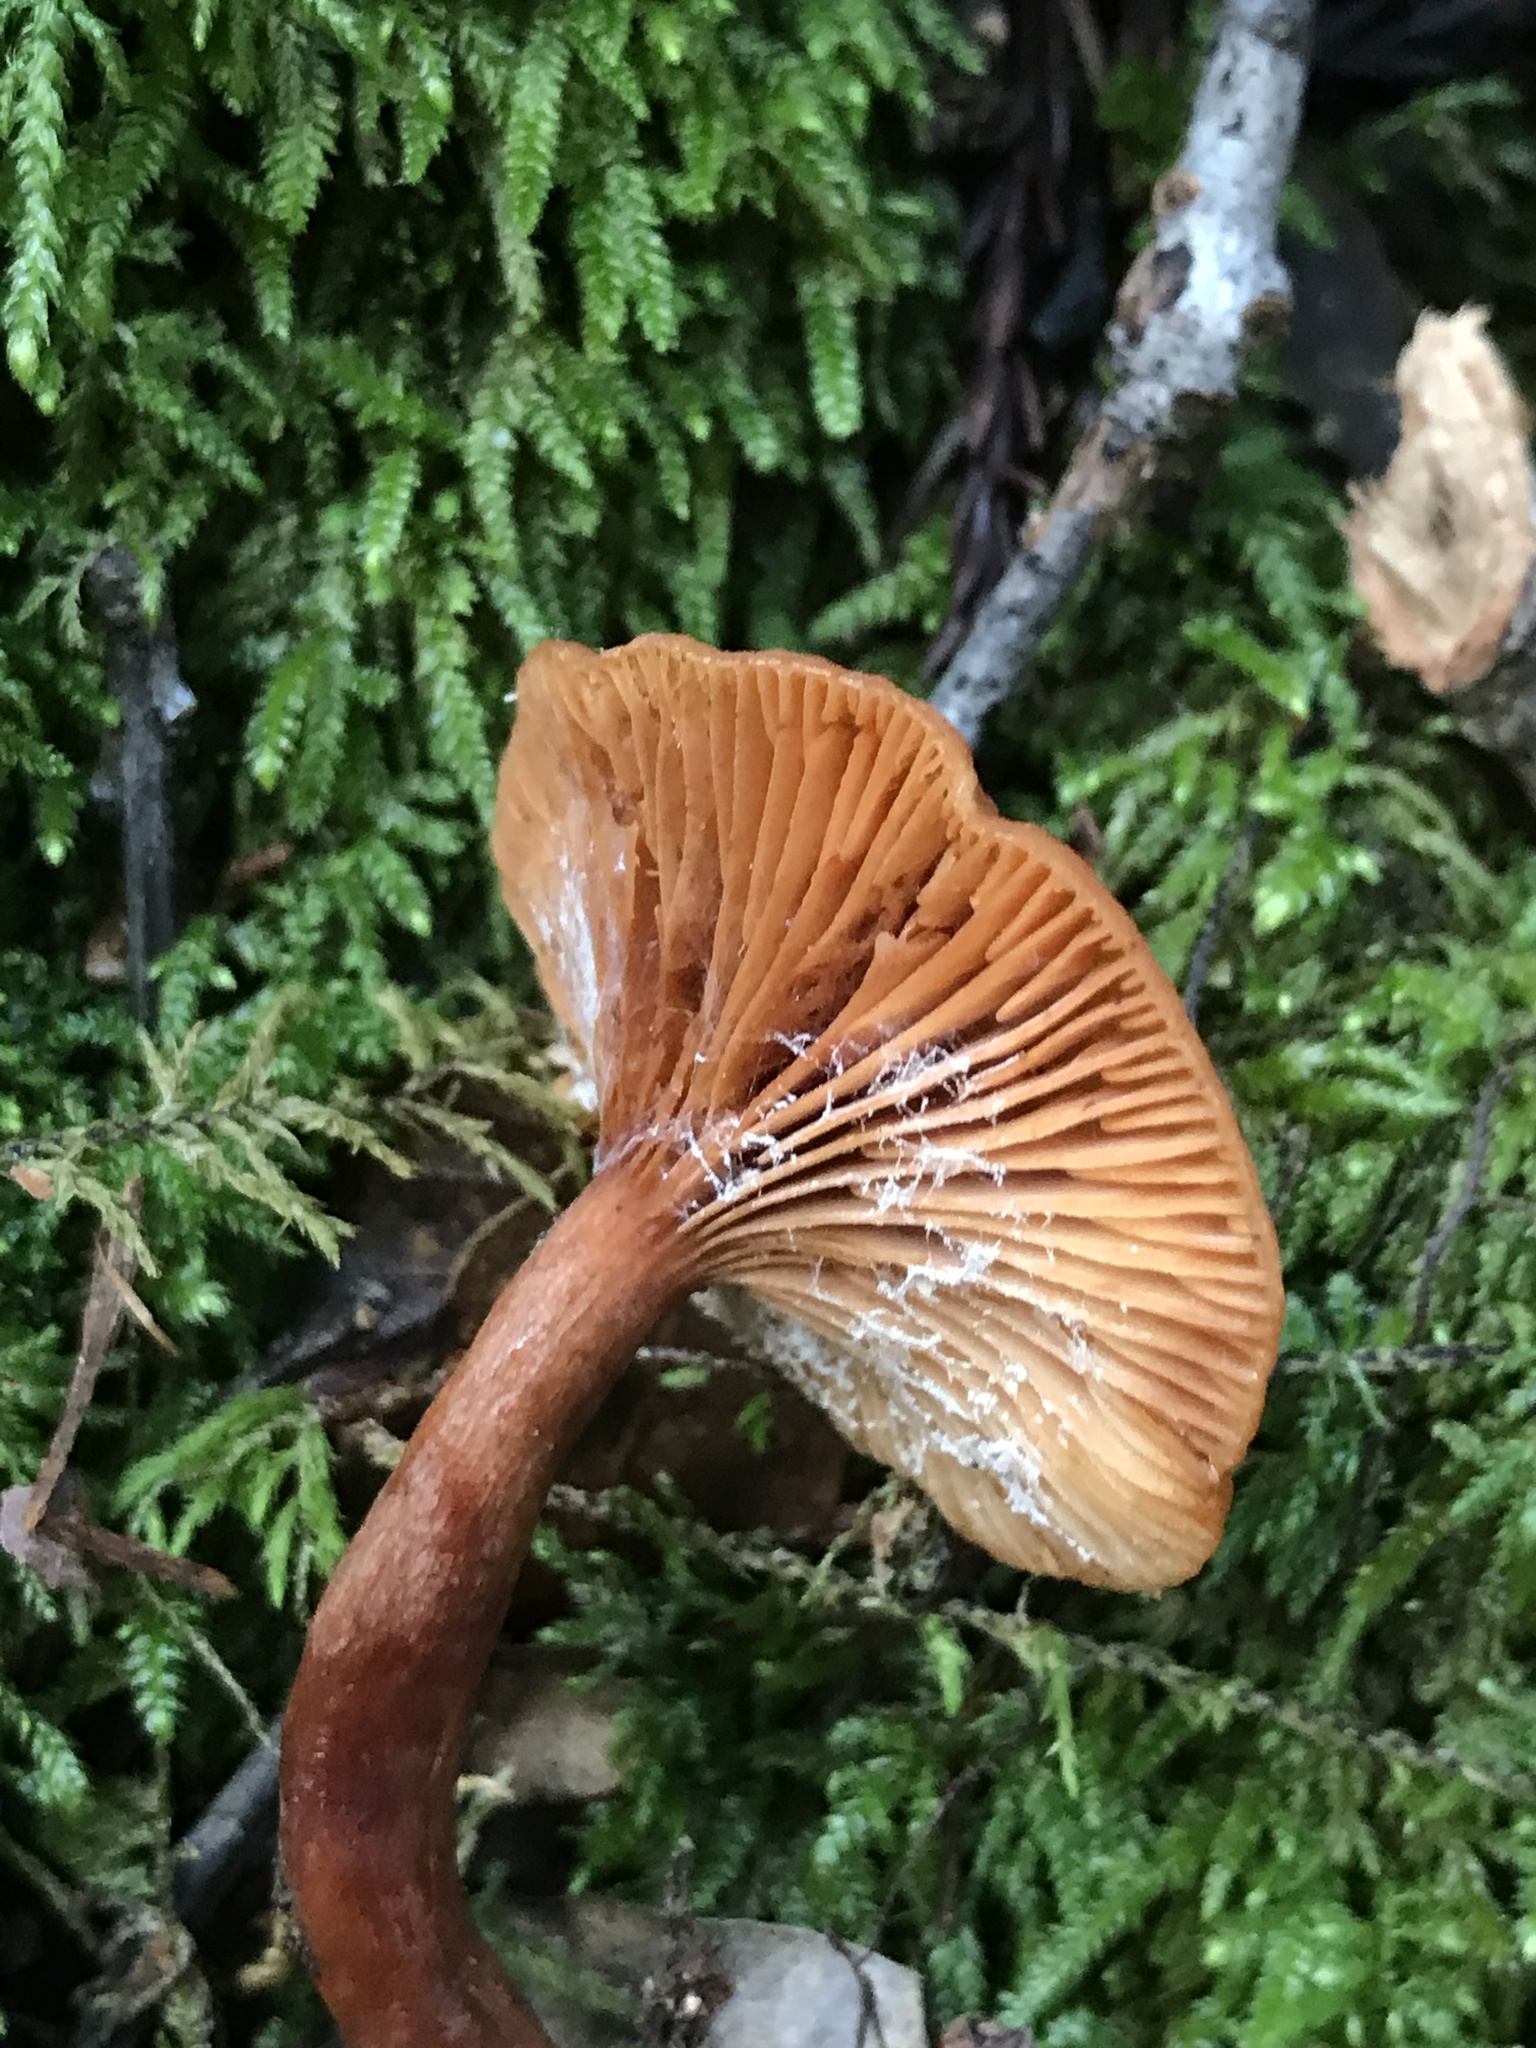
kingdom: Fungi
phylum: Basidiomycota
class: Agaricomycetes
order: Russulales
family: Russulaceae
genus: Lactarius
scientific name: Lactarius rubidus
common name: Candy cap
